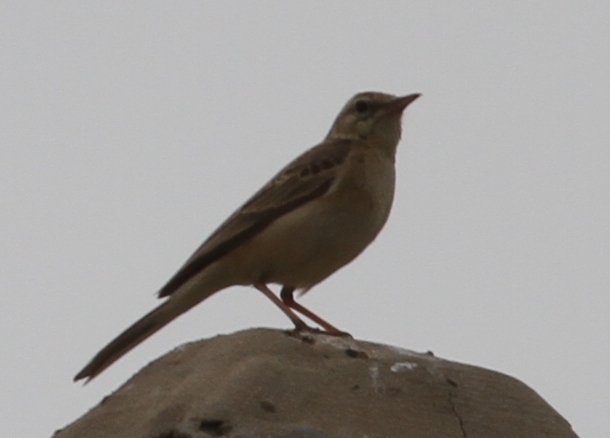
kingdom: Animalia
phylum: Chordata
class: Aves
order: Passeriformes
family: Motacillidae
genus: Anthus
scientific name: Anthus campestris
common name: Tawny pipit
